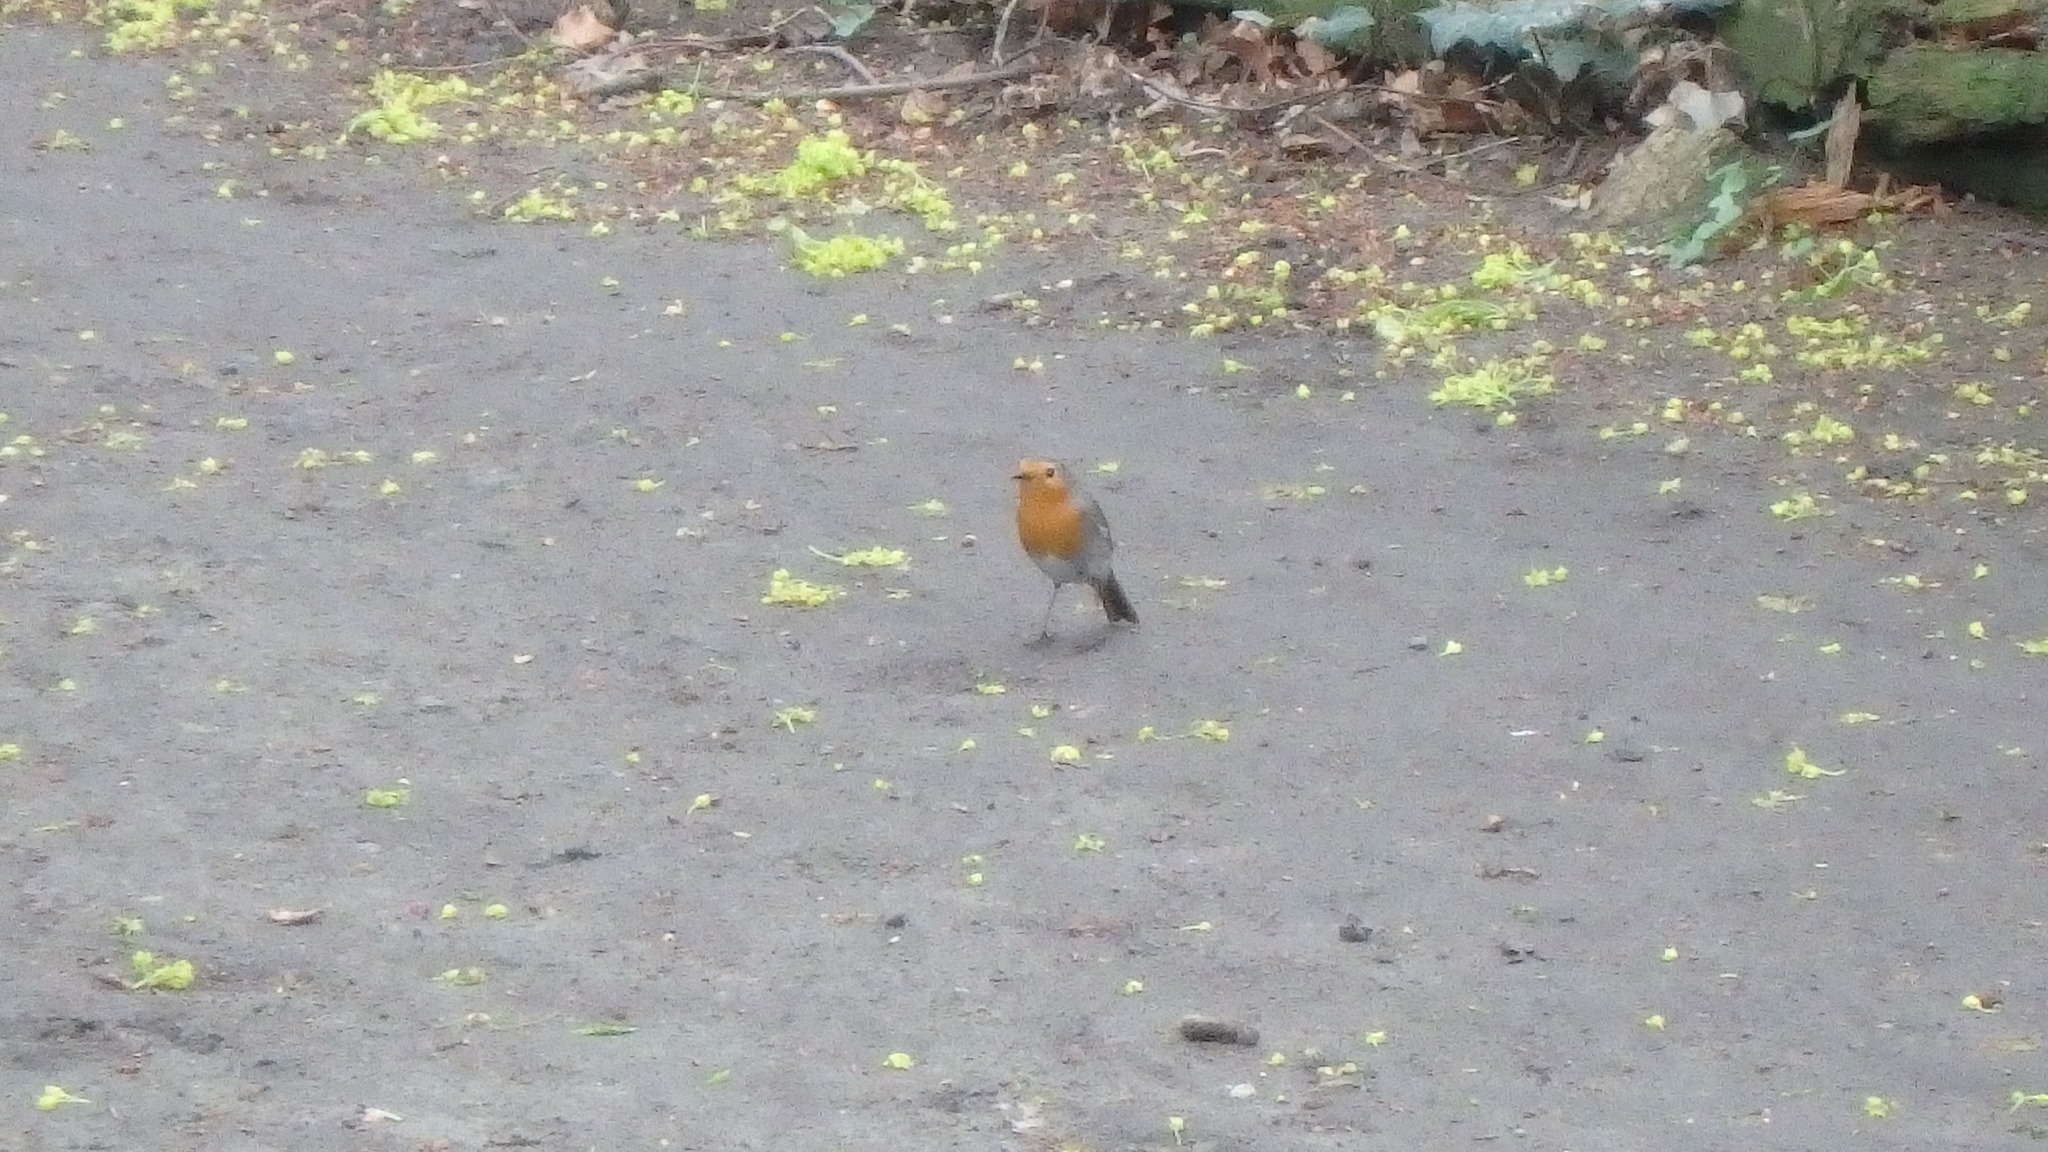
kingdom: Animalia
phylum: Chordata
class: Aves
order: Passeriformes
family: Muscicapidae
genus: Erithacus
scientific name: Erithacus rubecula
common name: European robin
